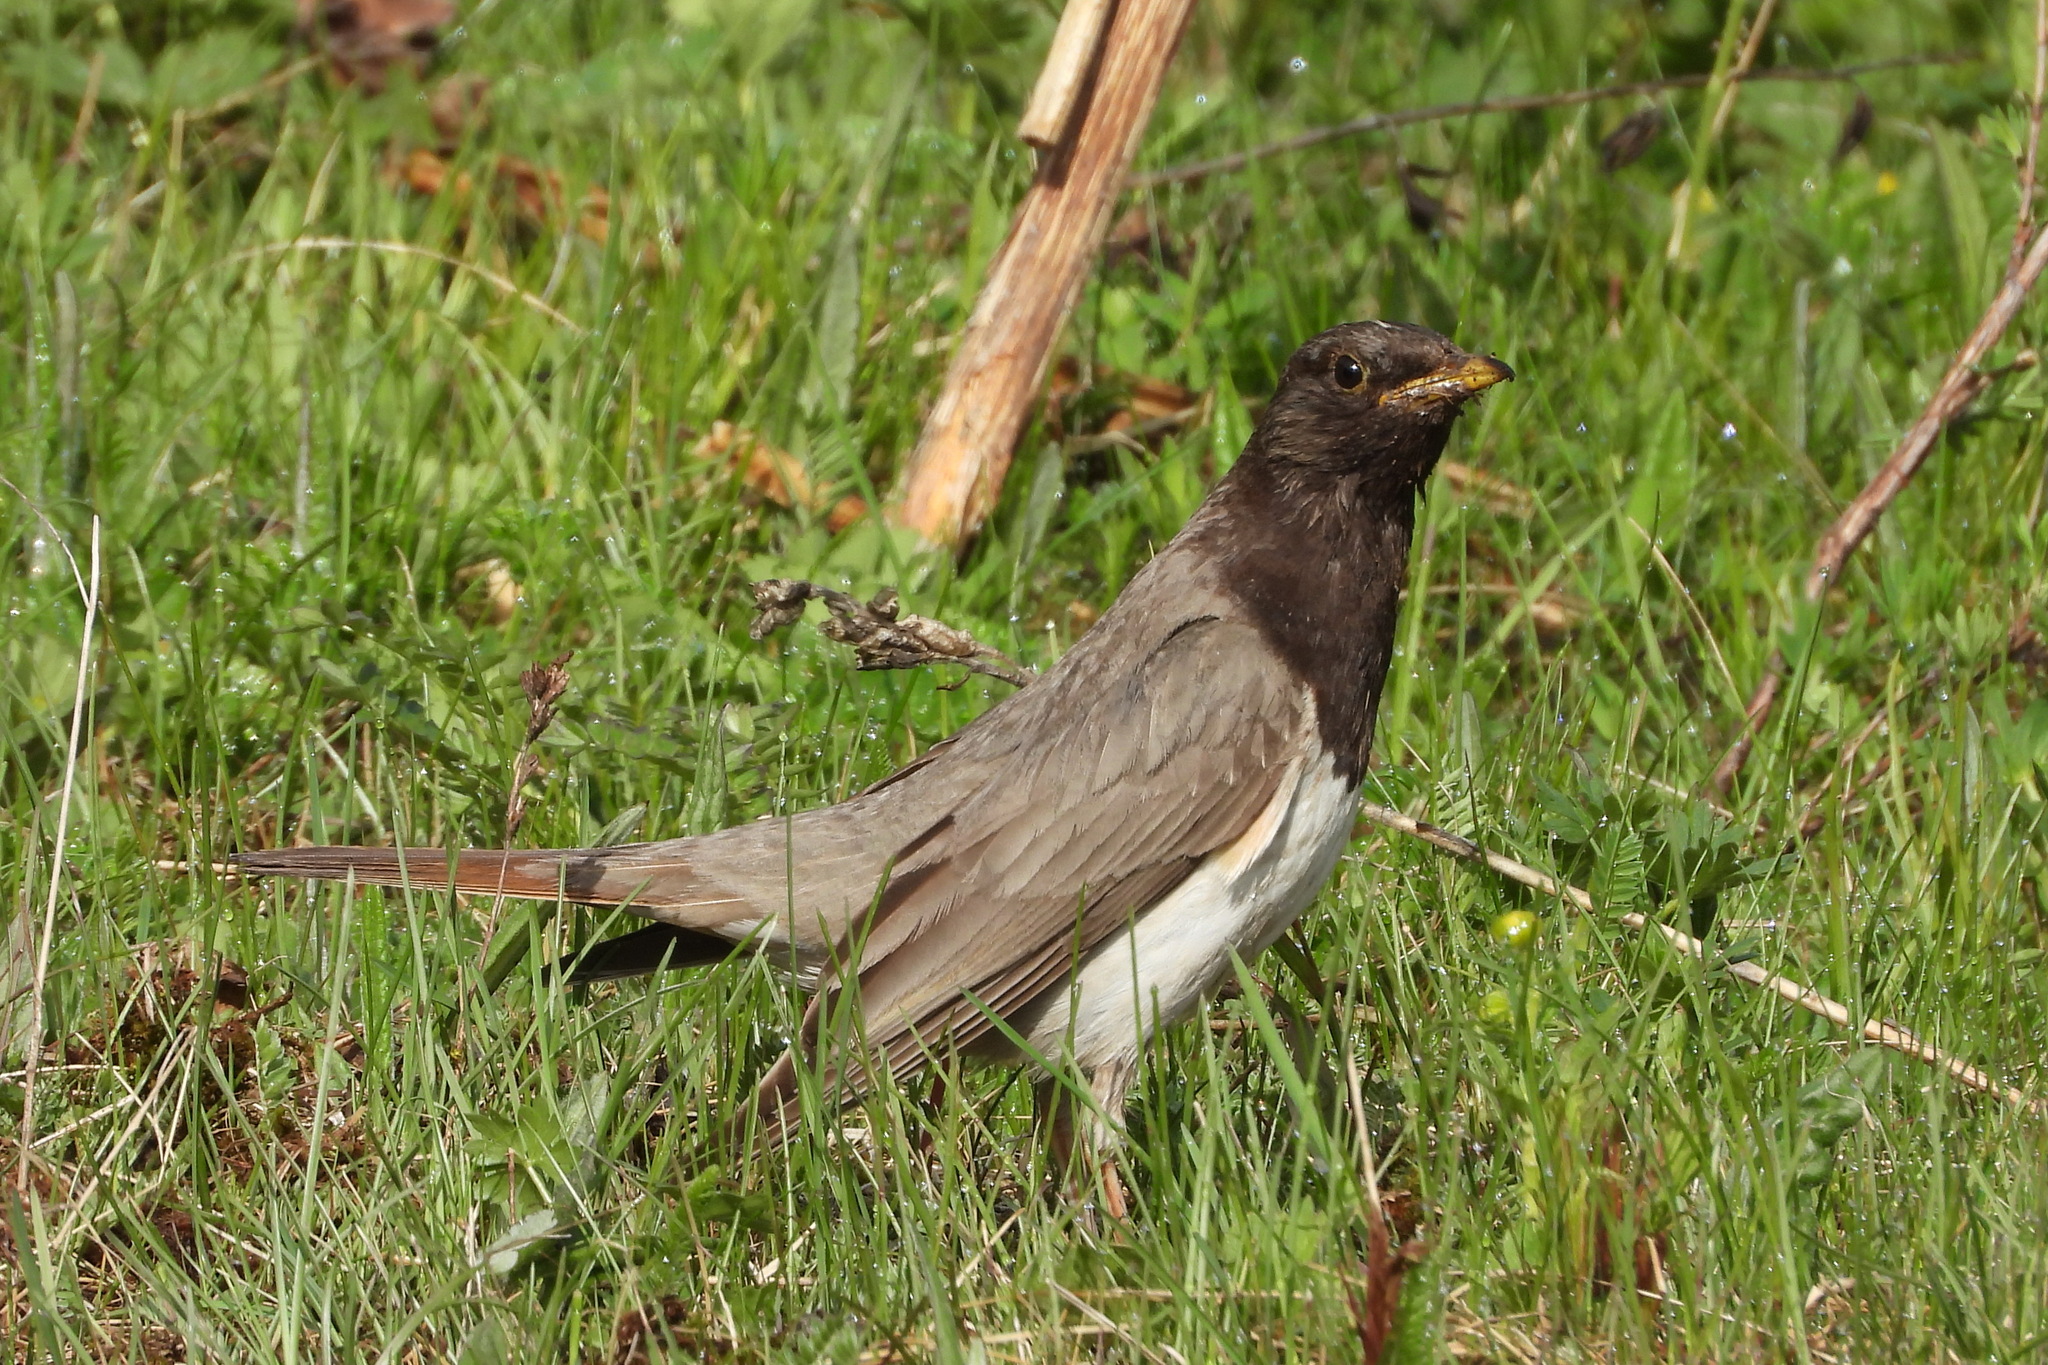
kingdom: Animalia
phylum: Chordata
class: Aves
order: Passeriformes
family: Turdidae
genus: Turdus
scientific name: Turdus atrogularis
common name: Black-throated thrush
